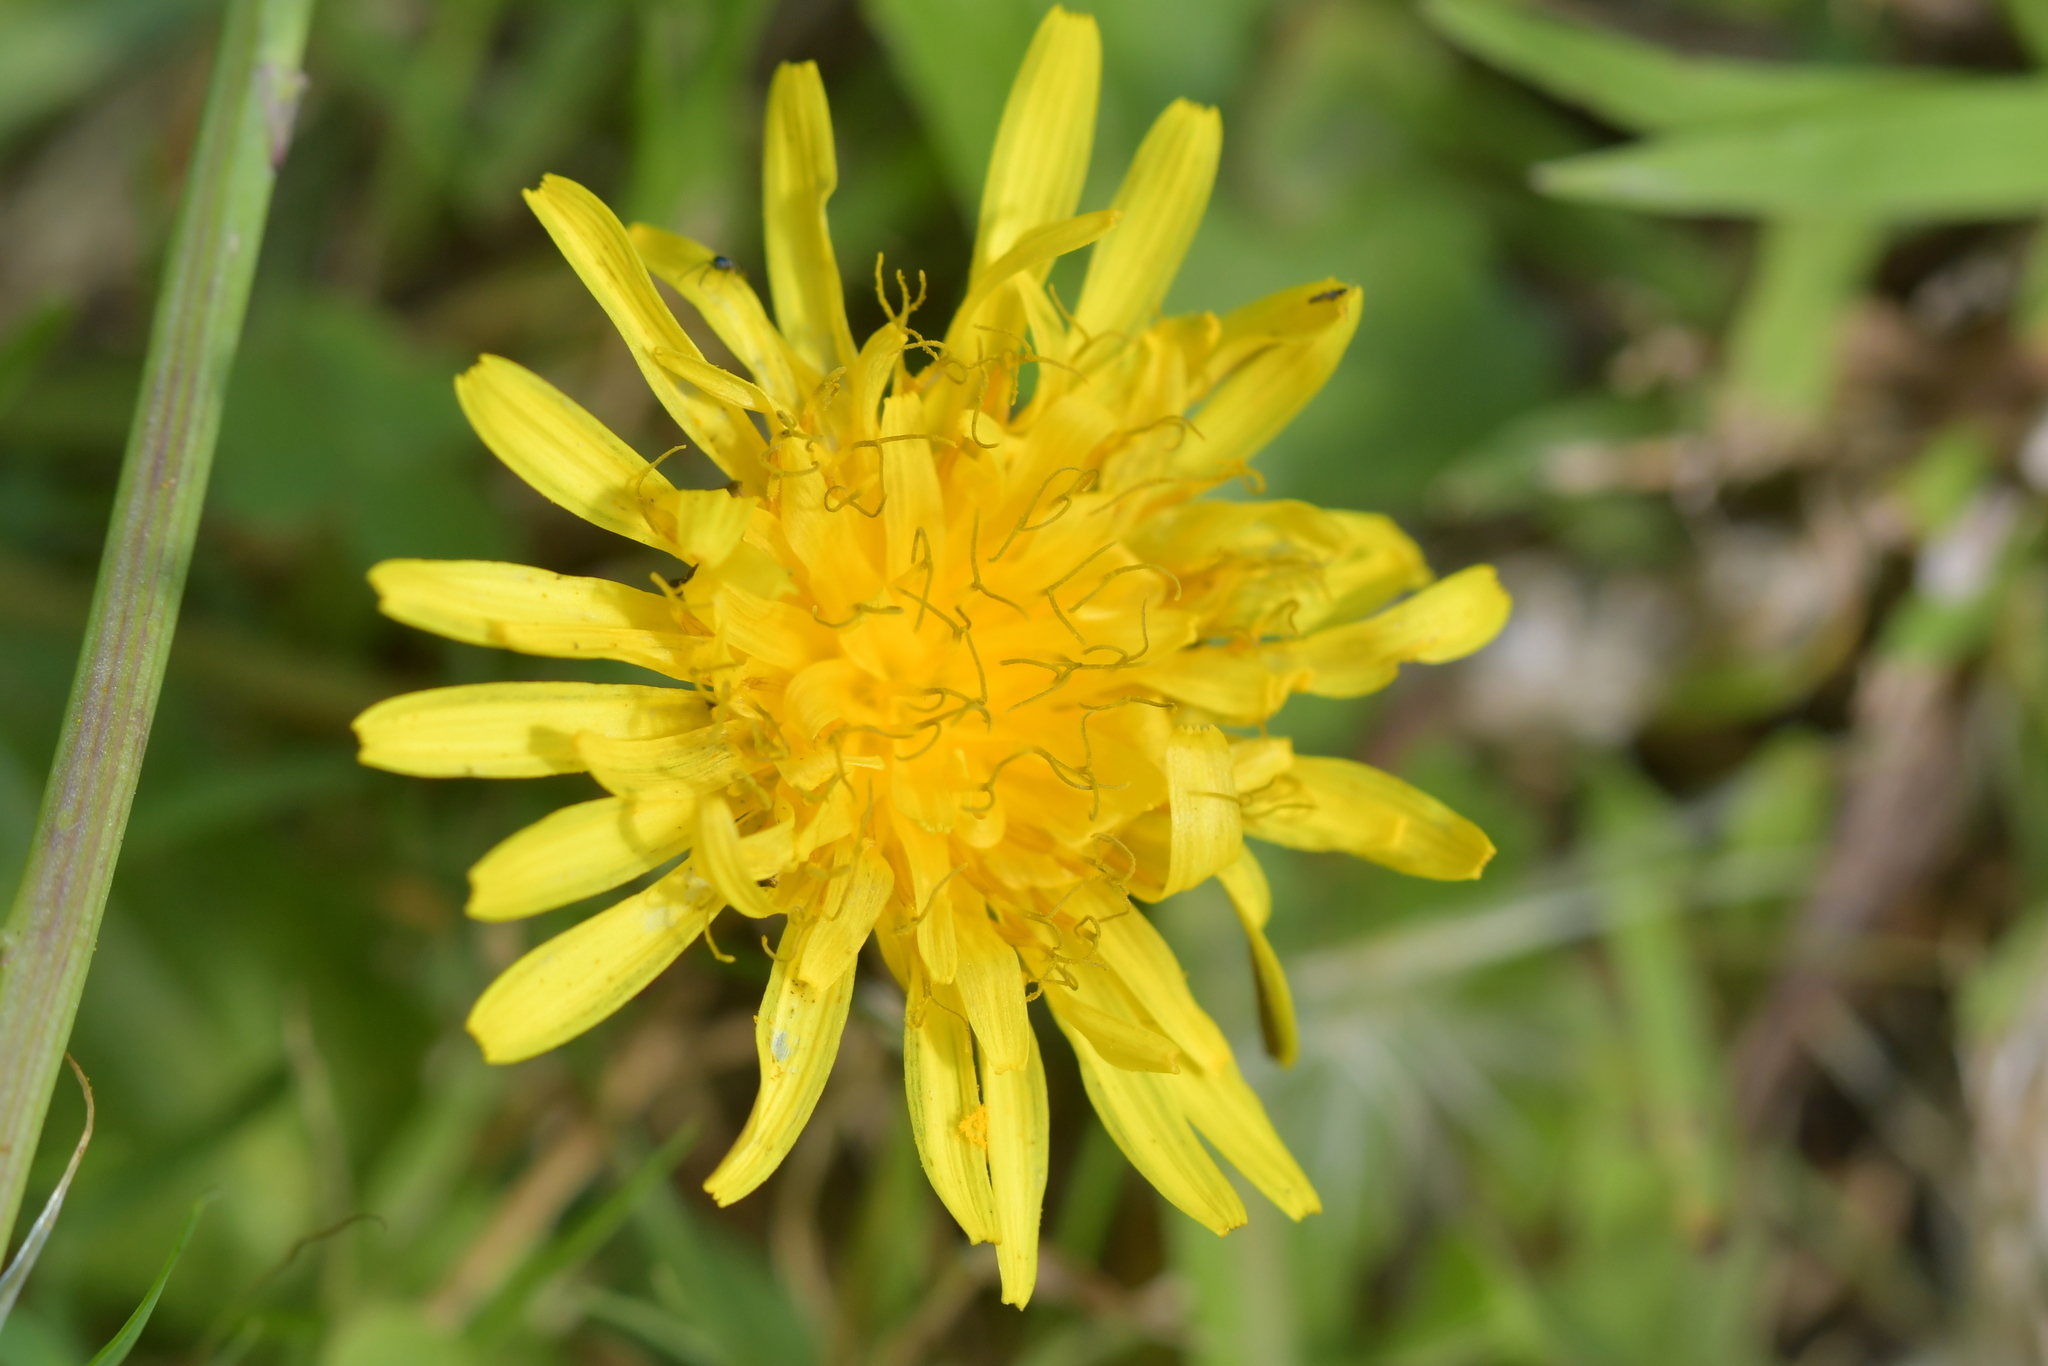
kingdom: Plantae
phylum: Tracheophyta
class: Magnoliopsida
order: Asterales
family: Asteraceae
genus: Hypochaeris
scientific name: Hypochaeris radicata
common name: Flatweed
